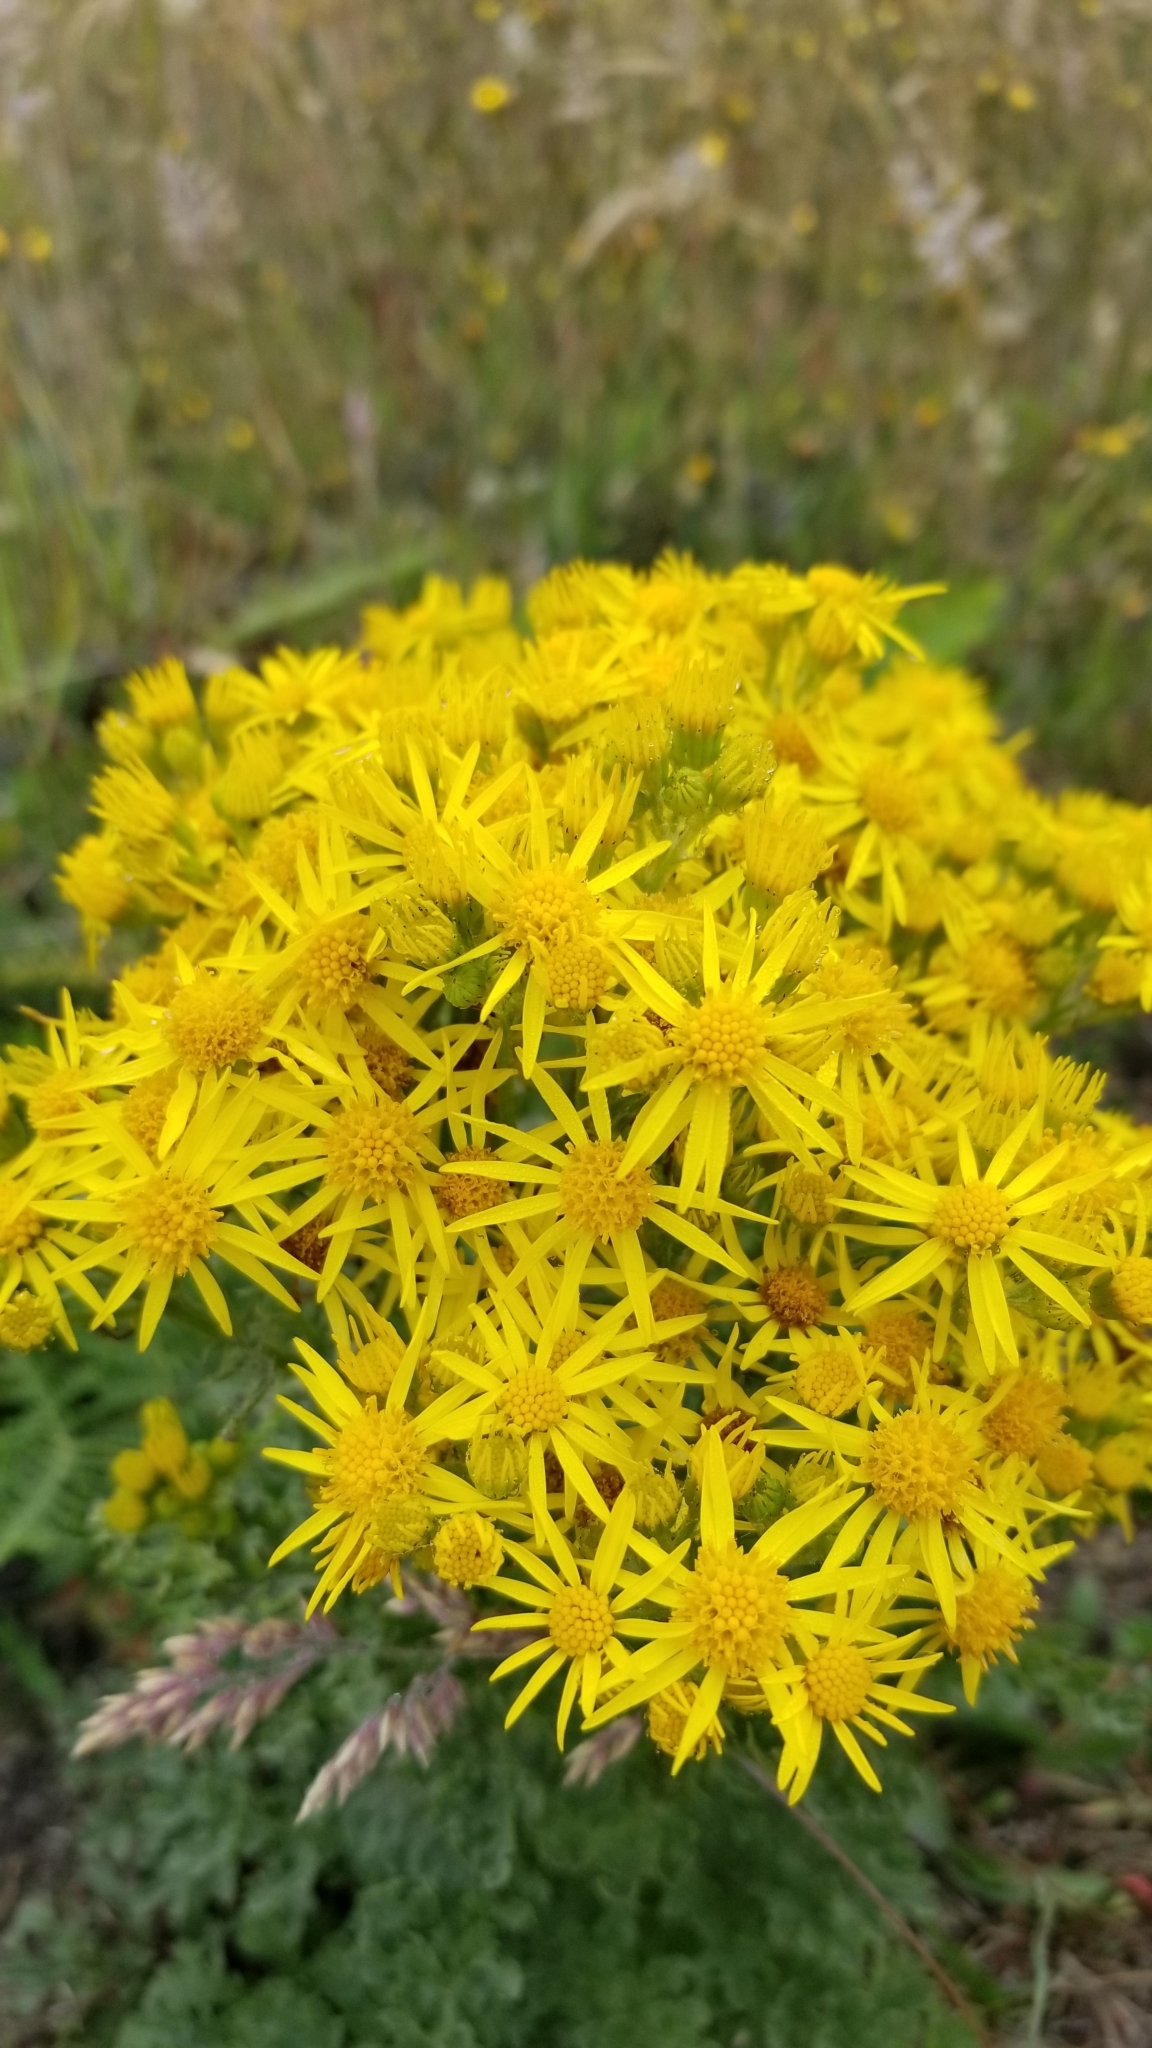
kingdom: Plantae
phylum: Tracheophyta
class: Magnoliopsida
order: Asterales
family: Asteraceae
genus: Jacobaea
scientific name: Jacobaea vulgaris
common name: Stinking willie
